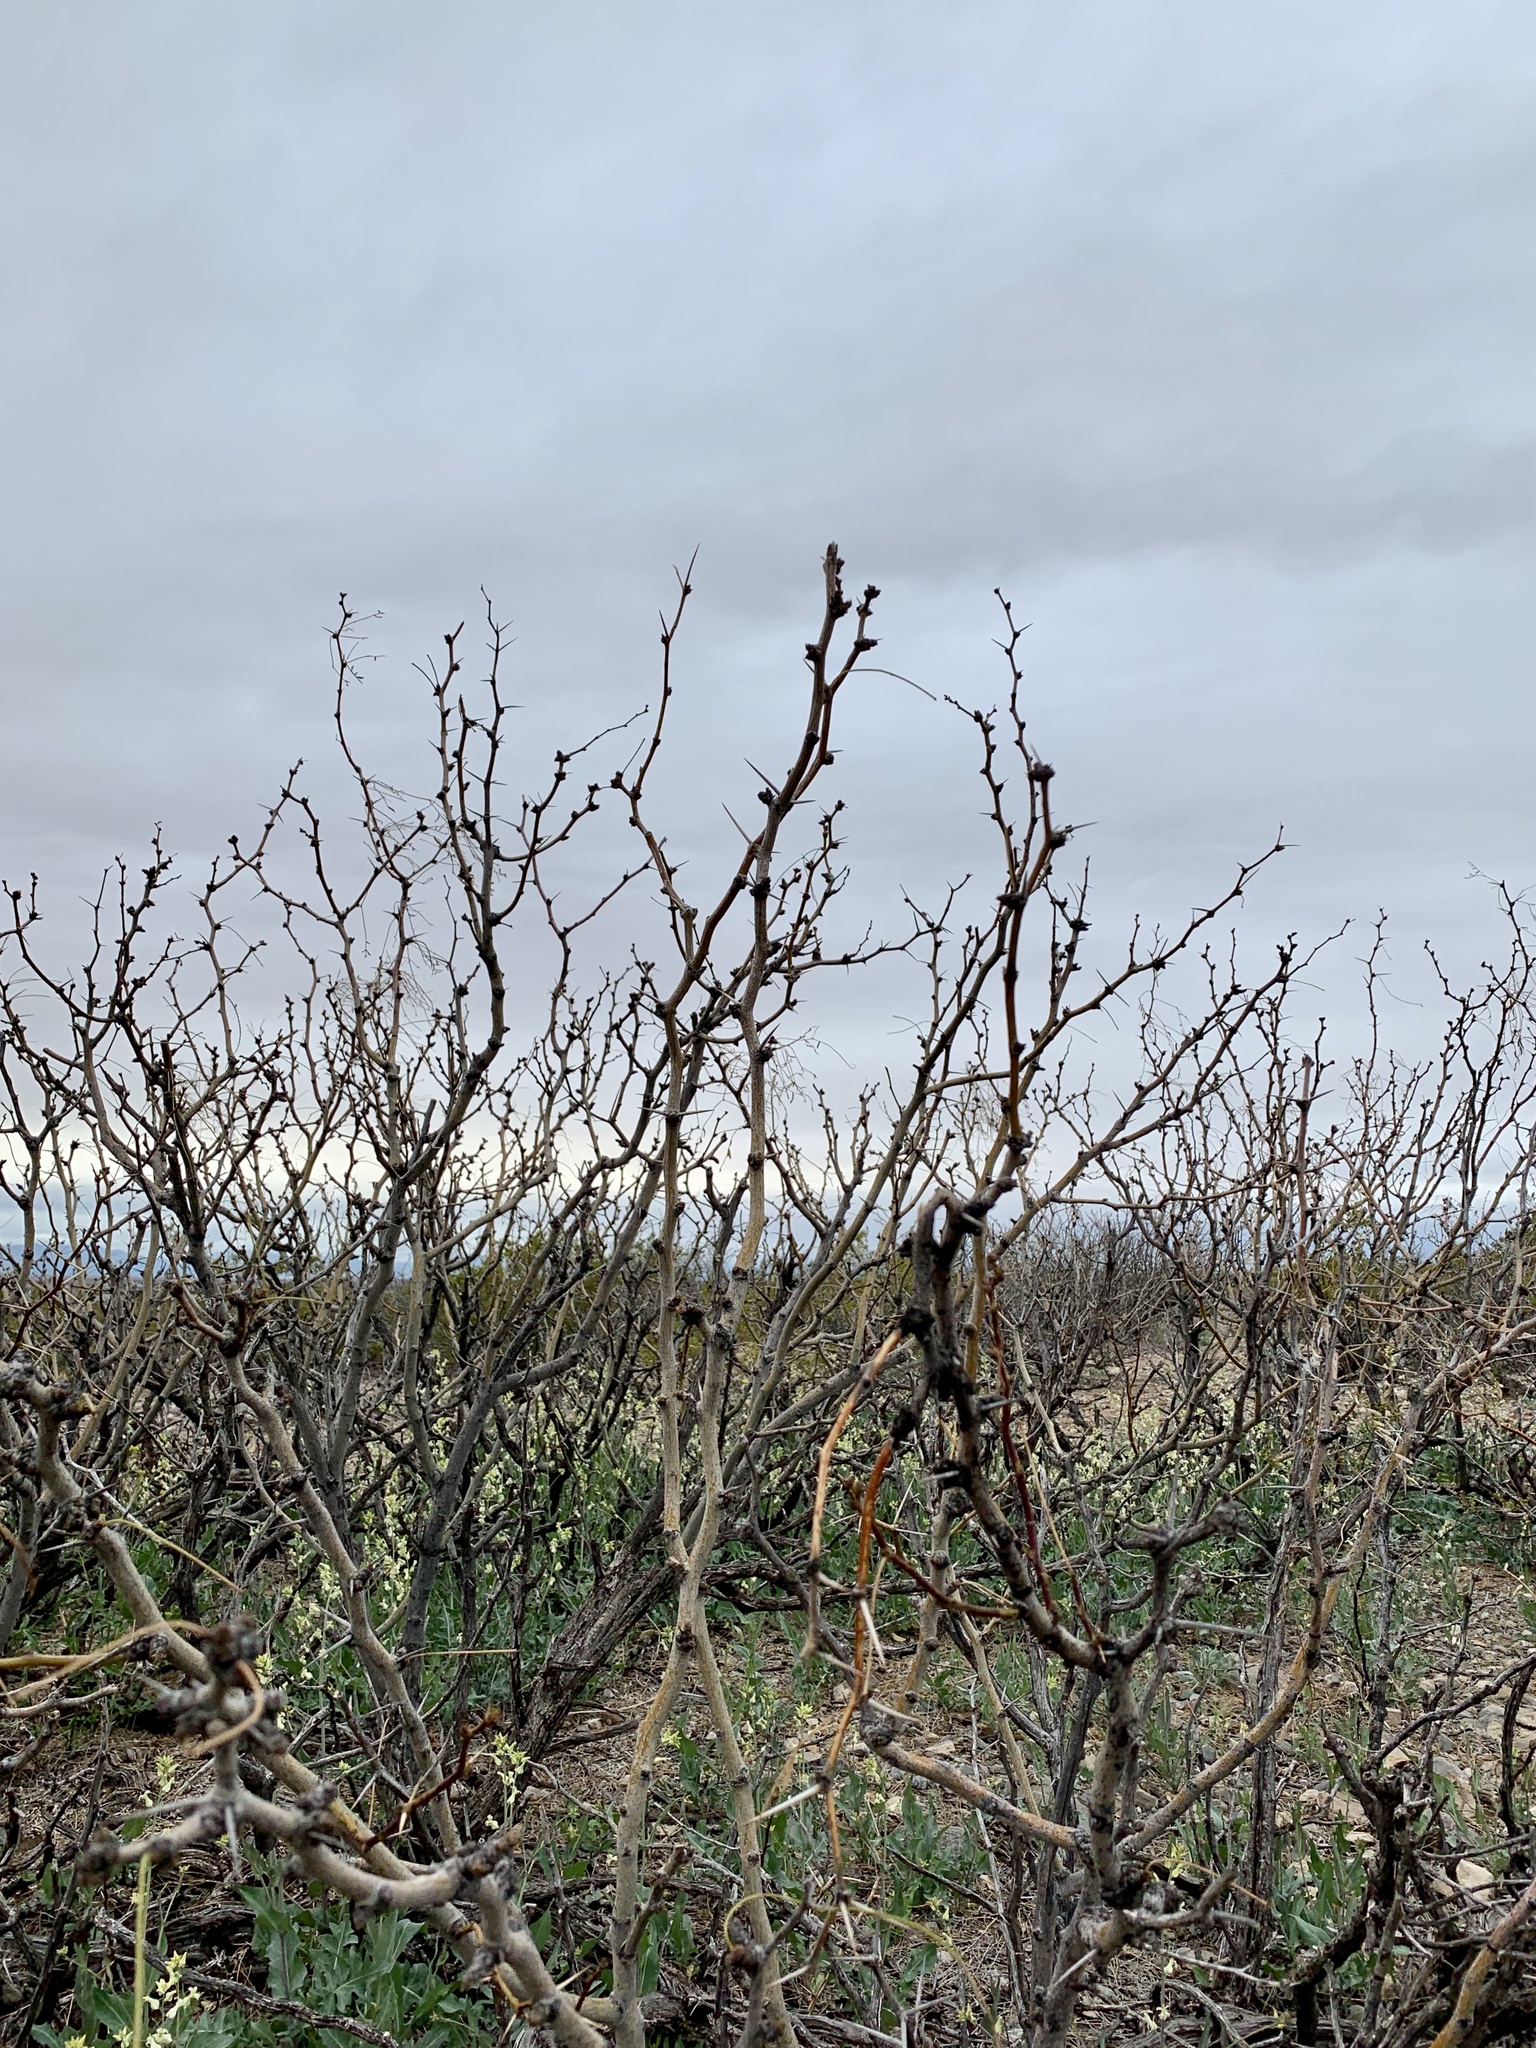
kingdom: Plantae
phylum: Tracheophyta
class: Magnoliopsida
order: Fabales
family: Fabaceae
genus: Prosopis
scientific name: Prosopis glandulosa
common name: Honey mesquite
